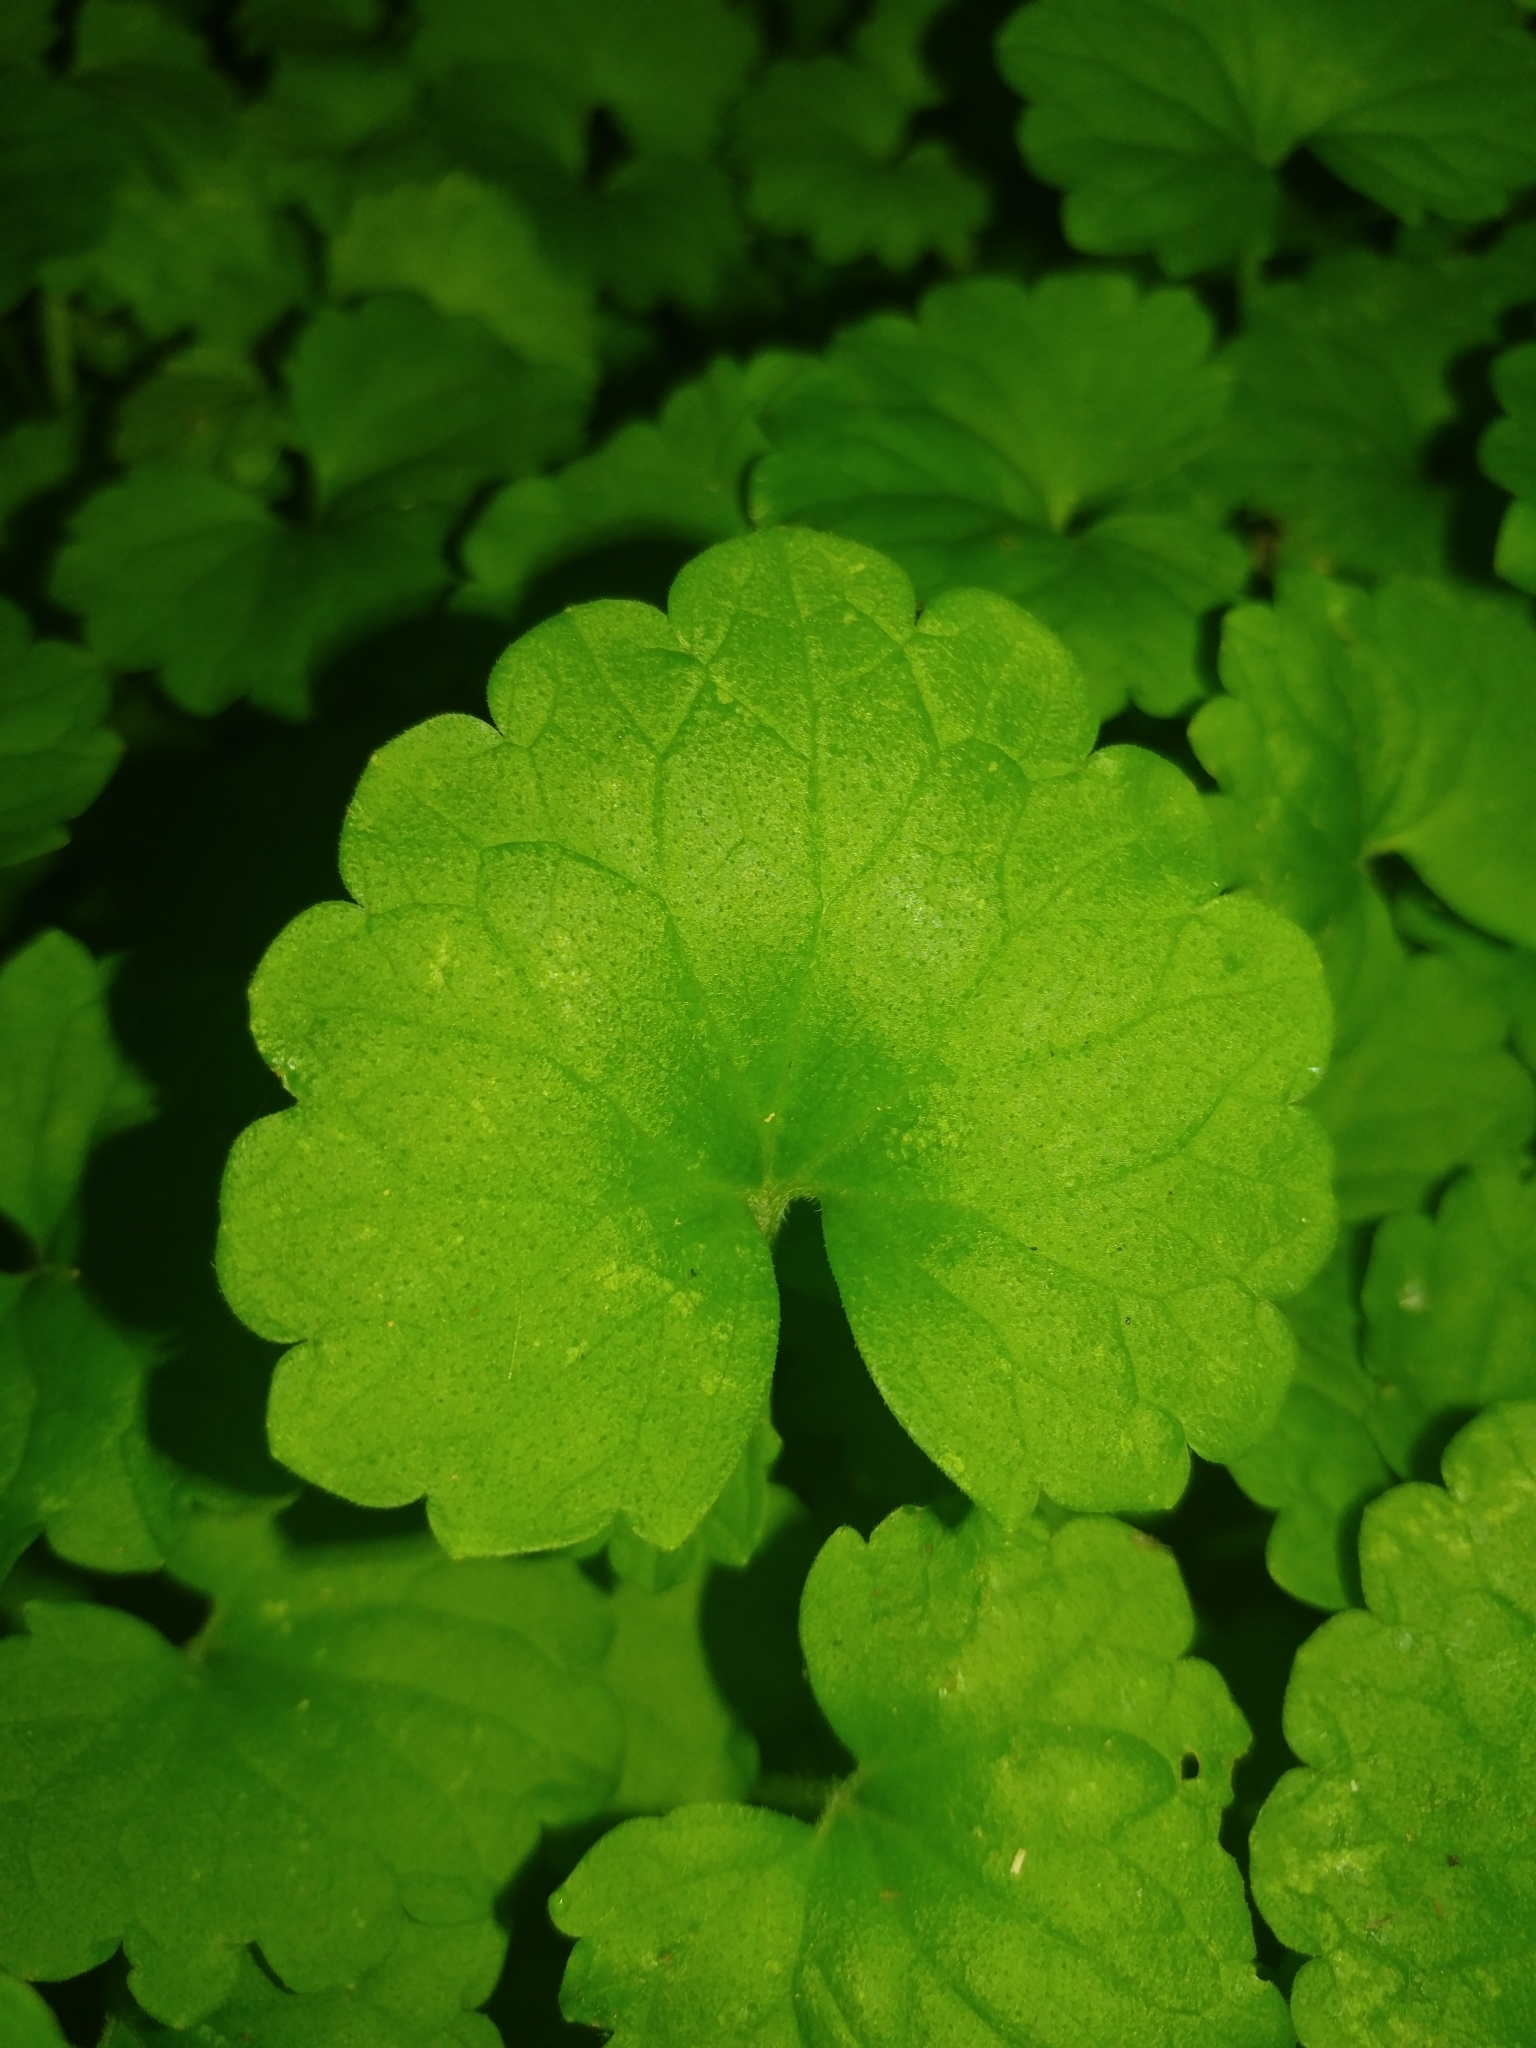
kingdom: Plantae
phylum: Tracheophyta
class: Magnoliopsida
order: Lamiales
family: Lamiaceae
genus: Glechoma
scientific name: Glechoma hederacea
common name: Ground ivy
